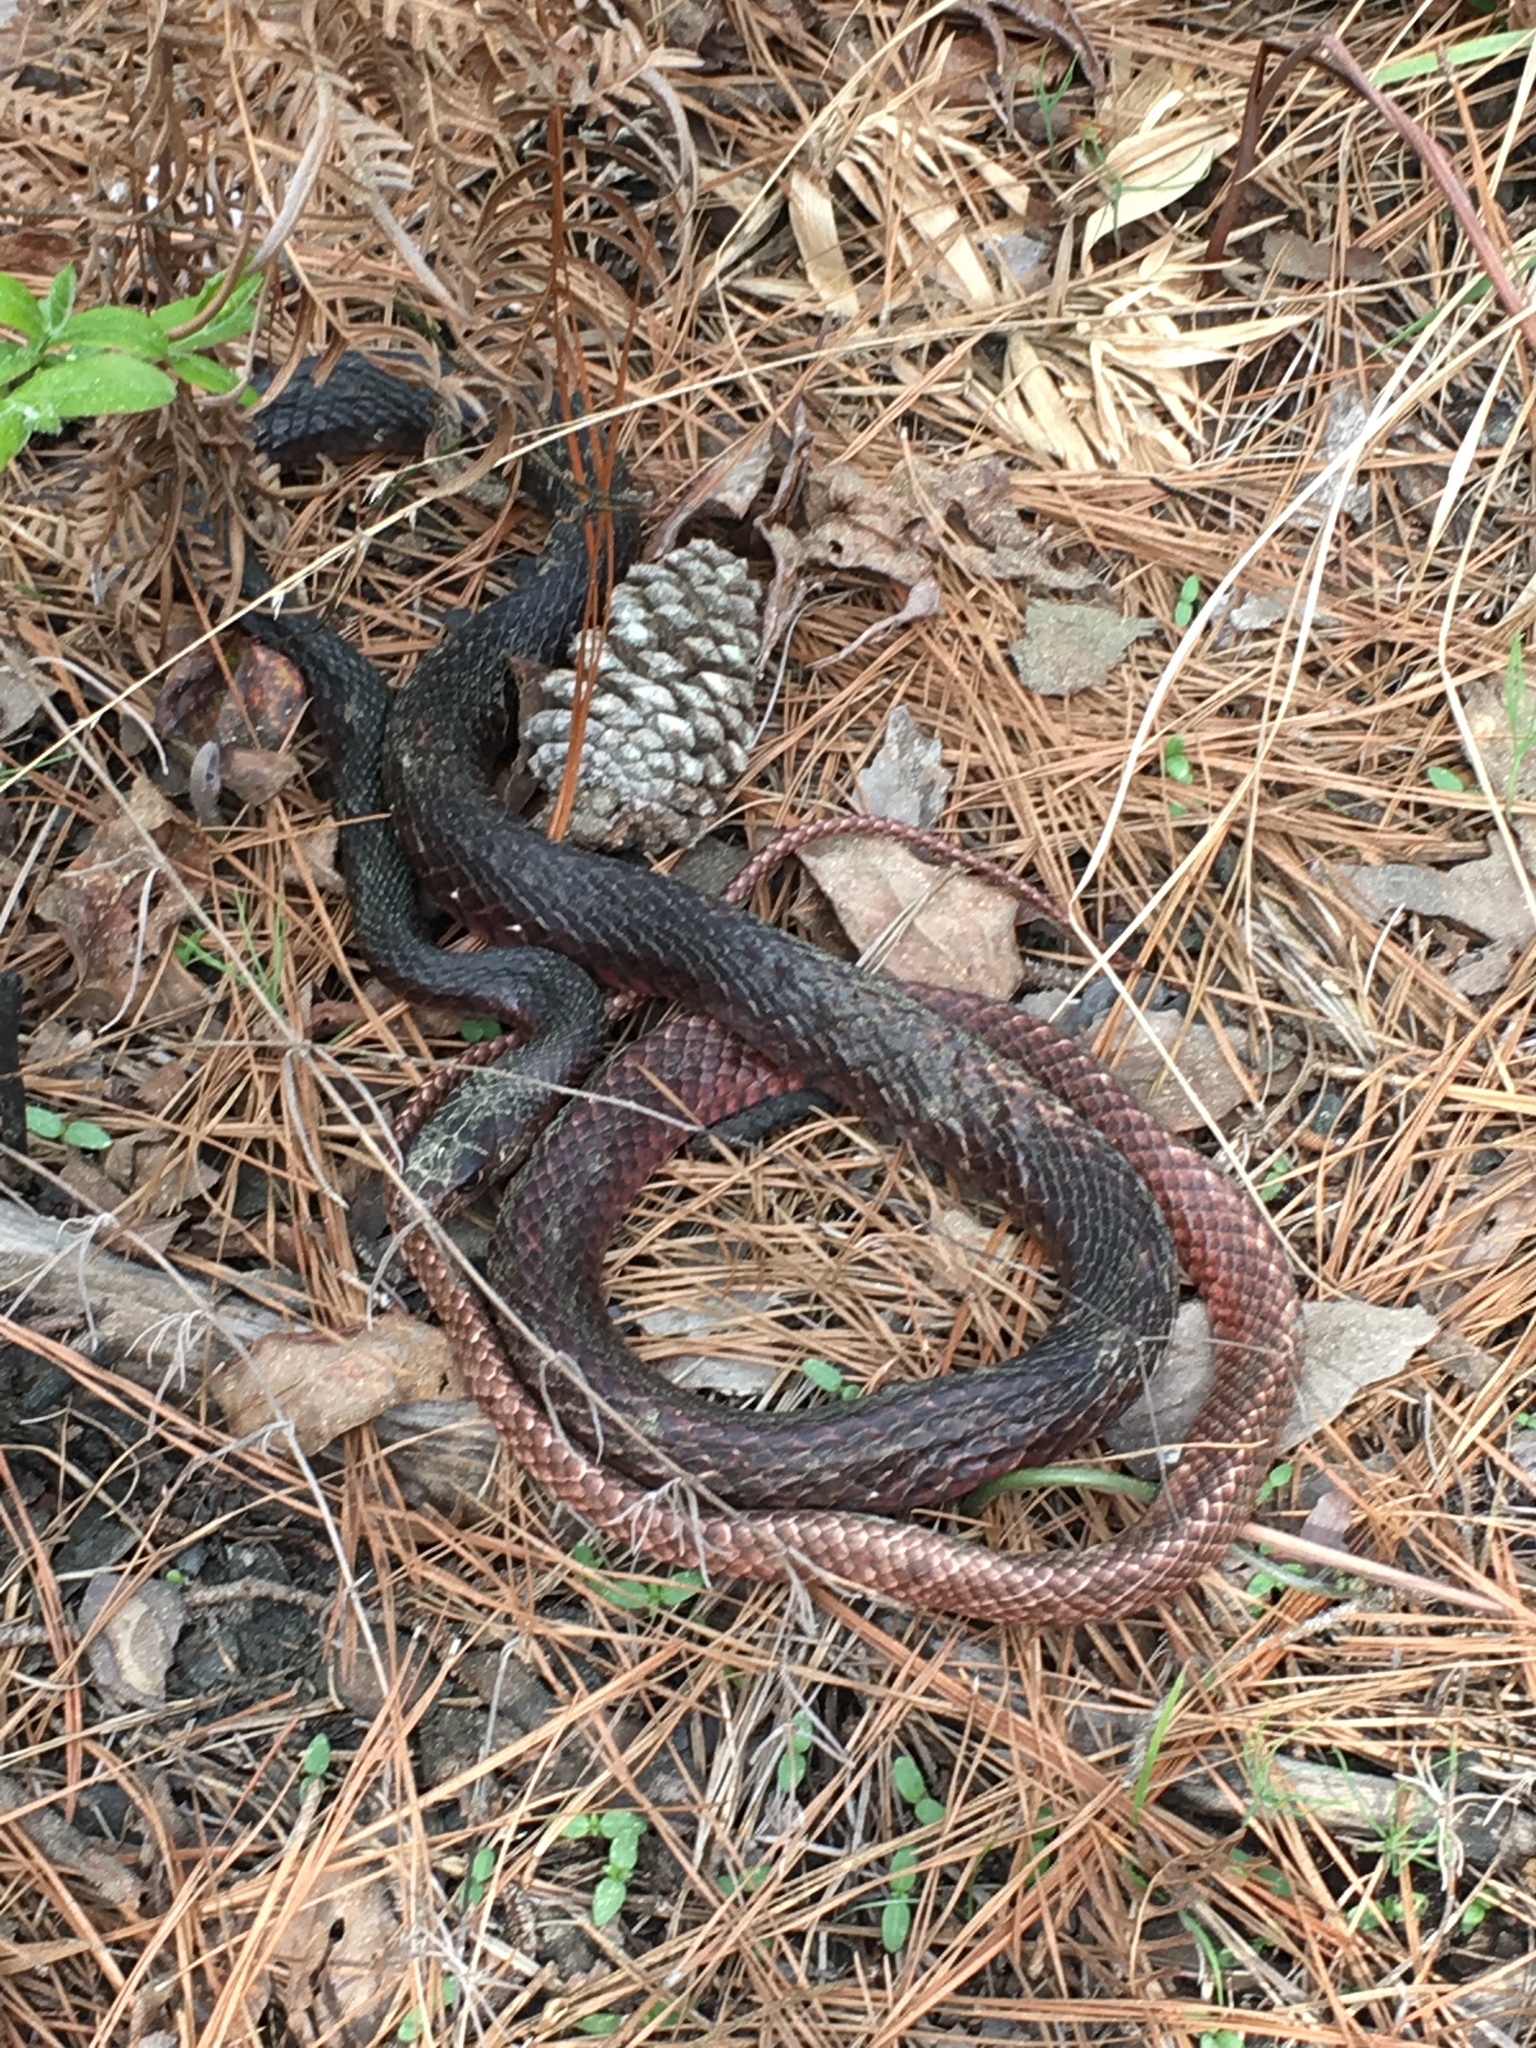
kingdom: Animalia
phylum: Chordata
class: Squamata
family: Colubridae
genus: Masticophis
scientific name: Masticophis flagellum
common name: Coachwhip
